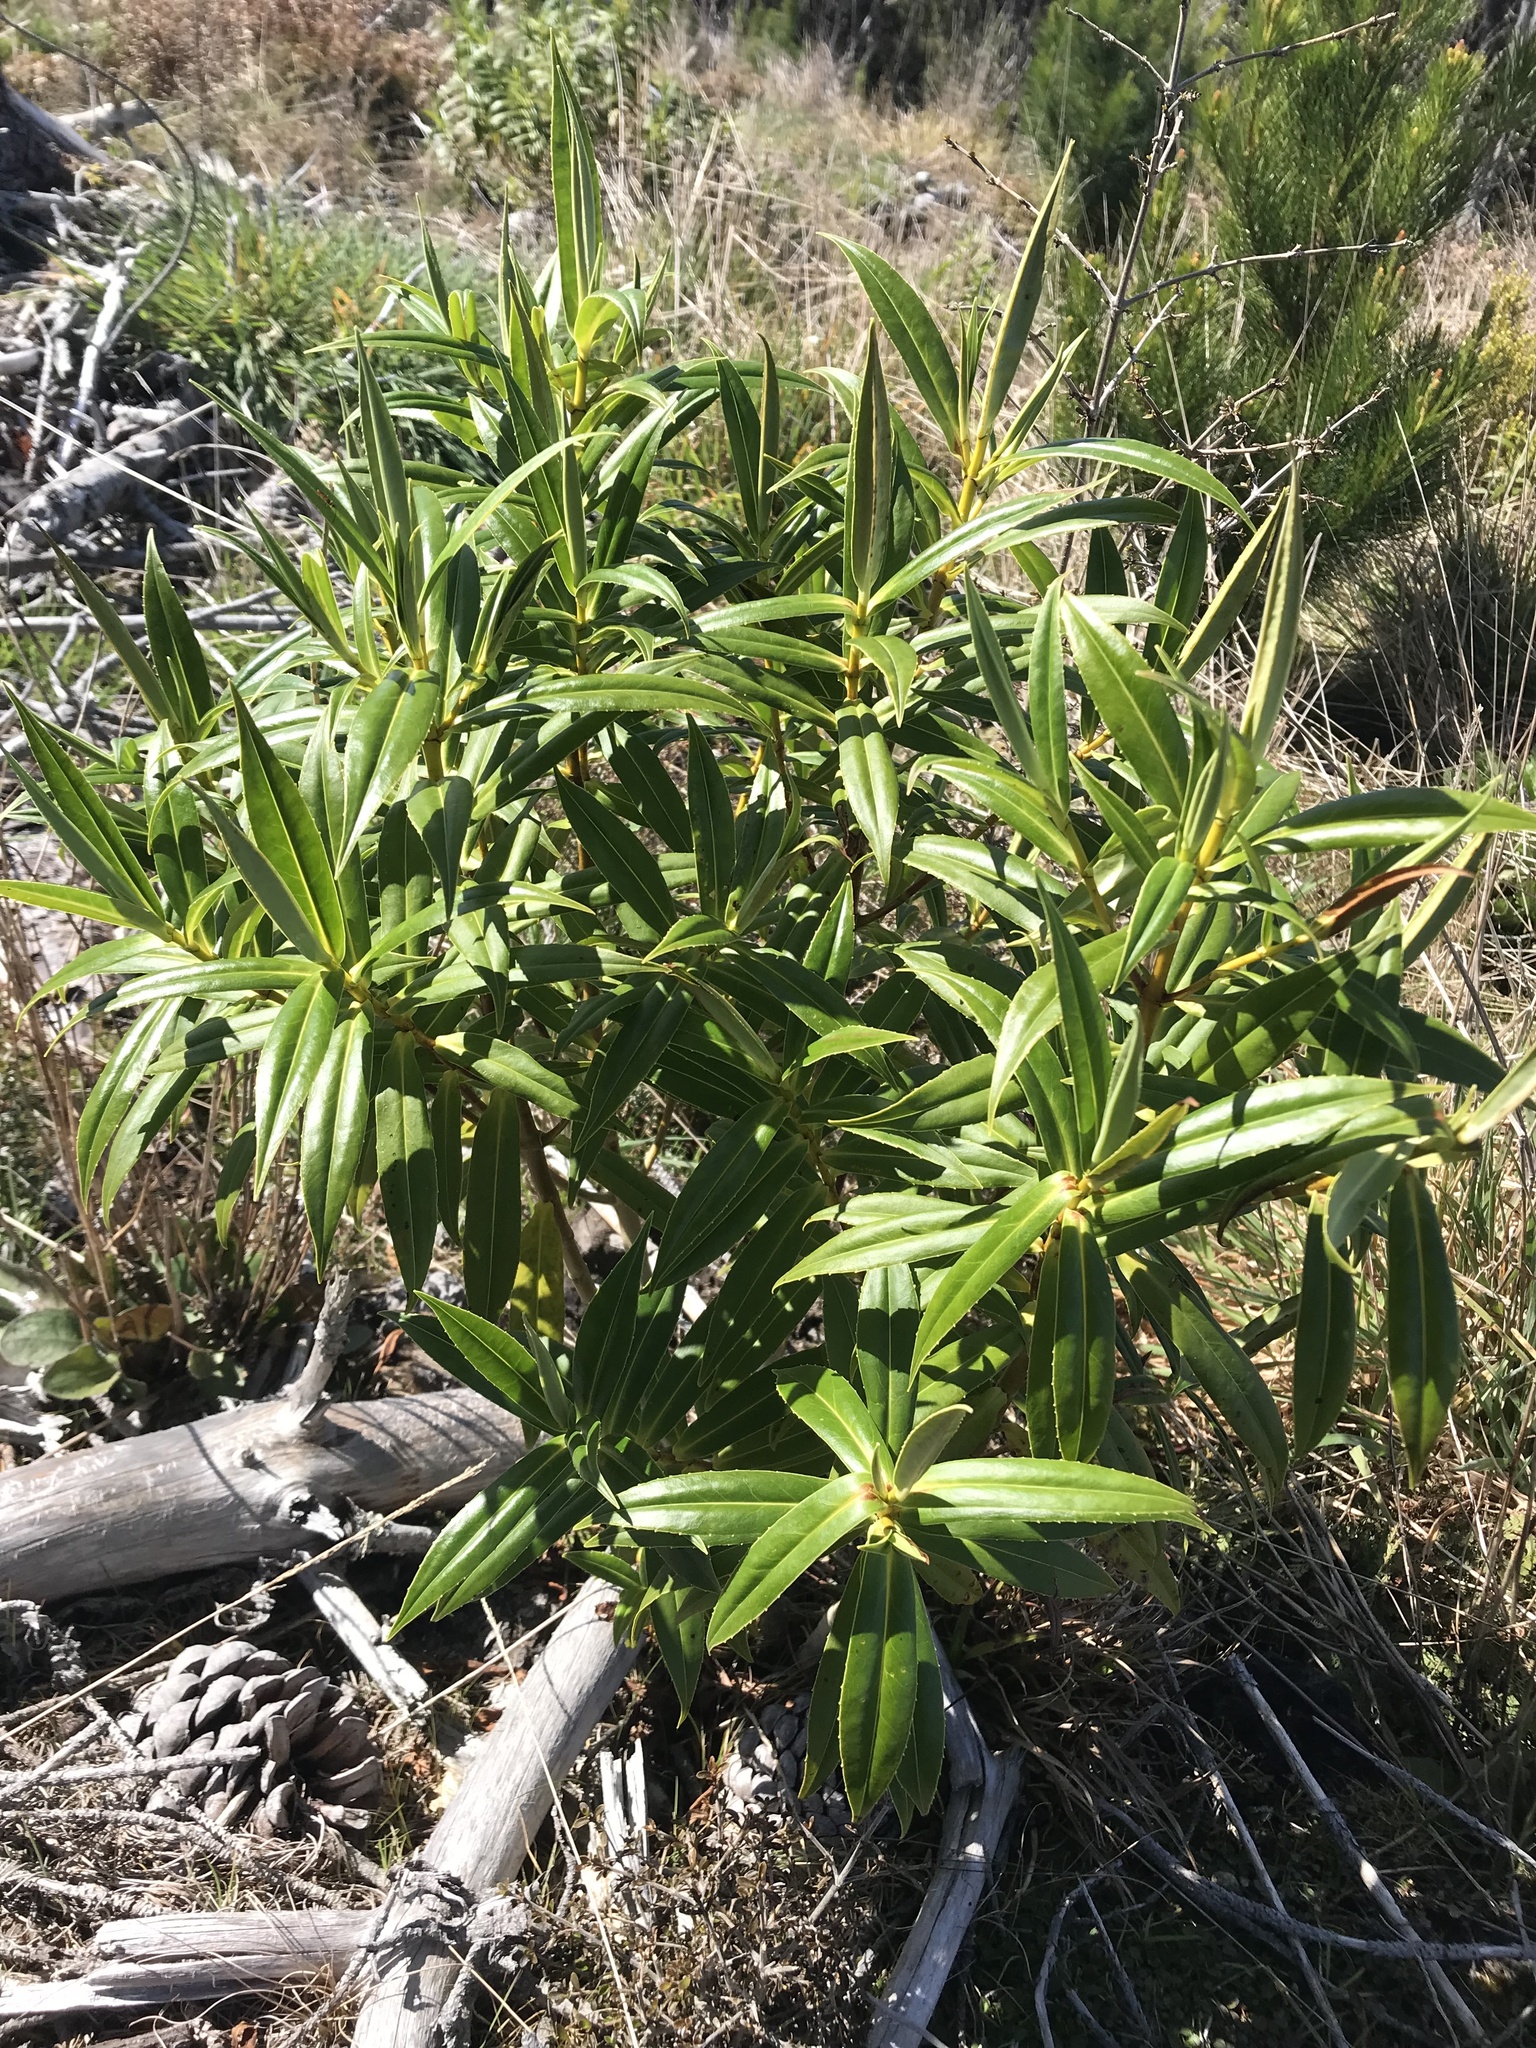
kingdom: Plantae
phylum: Tracheophyta
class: Magnoliopsida
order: Lamiales
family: Plantaginaceae
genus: Veronica
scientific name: Veronica salicifolia
